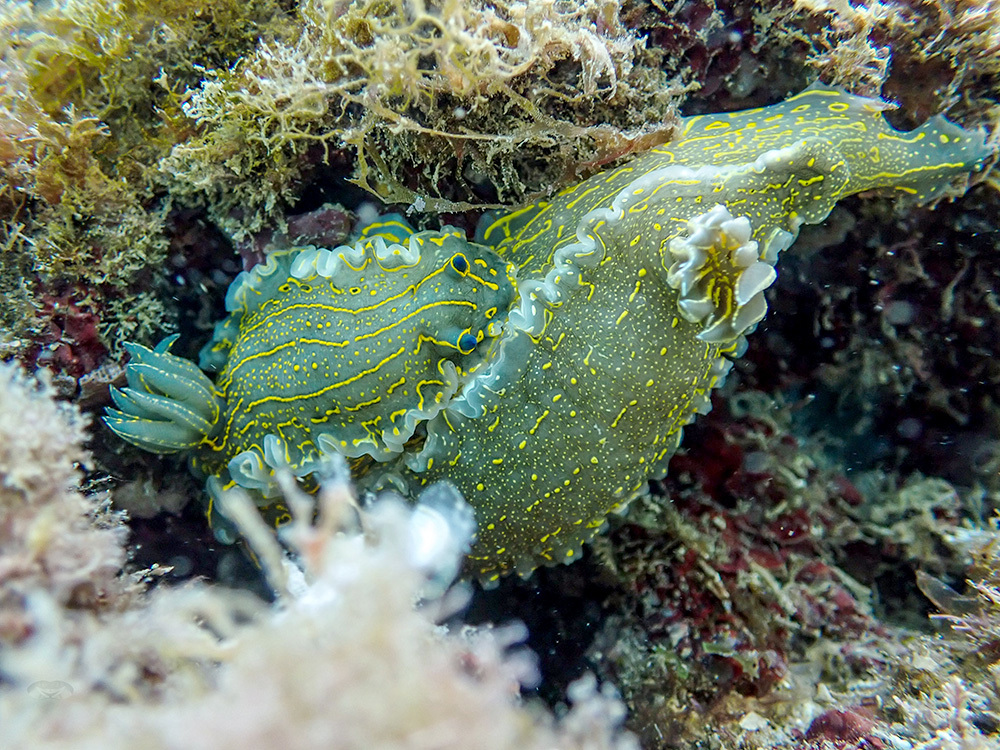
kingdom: Animalia
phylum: Mollusca
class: Gastropoda
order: Nudibranchia
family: Chromodorididae
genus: Felimare
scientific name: Felimare picta
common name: Giant doris
